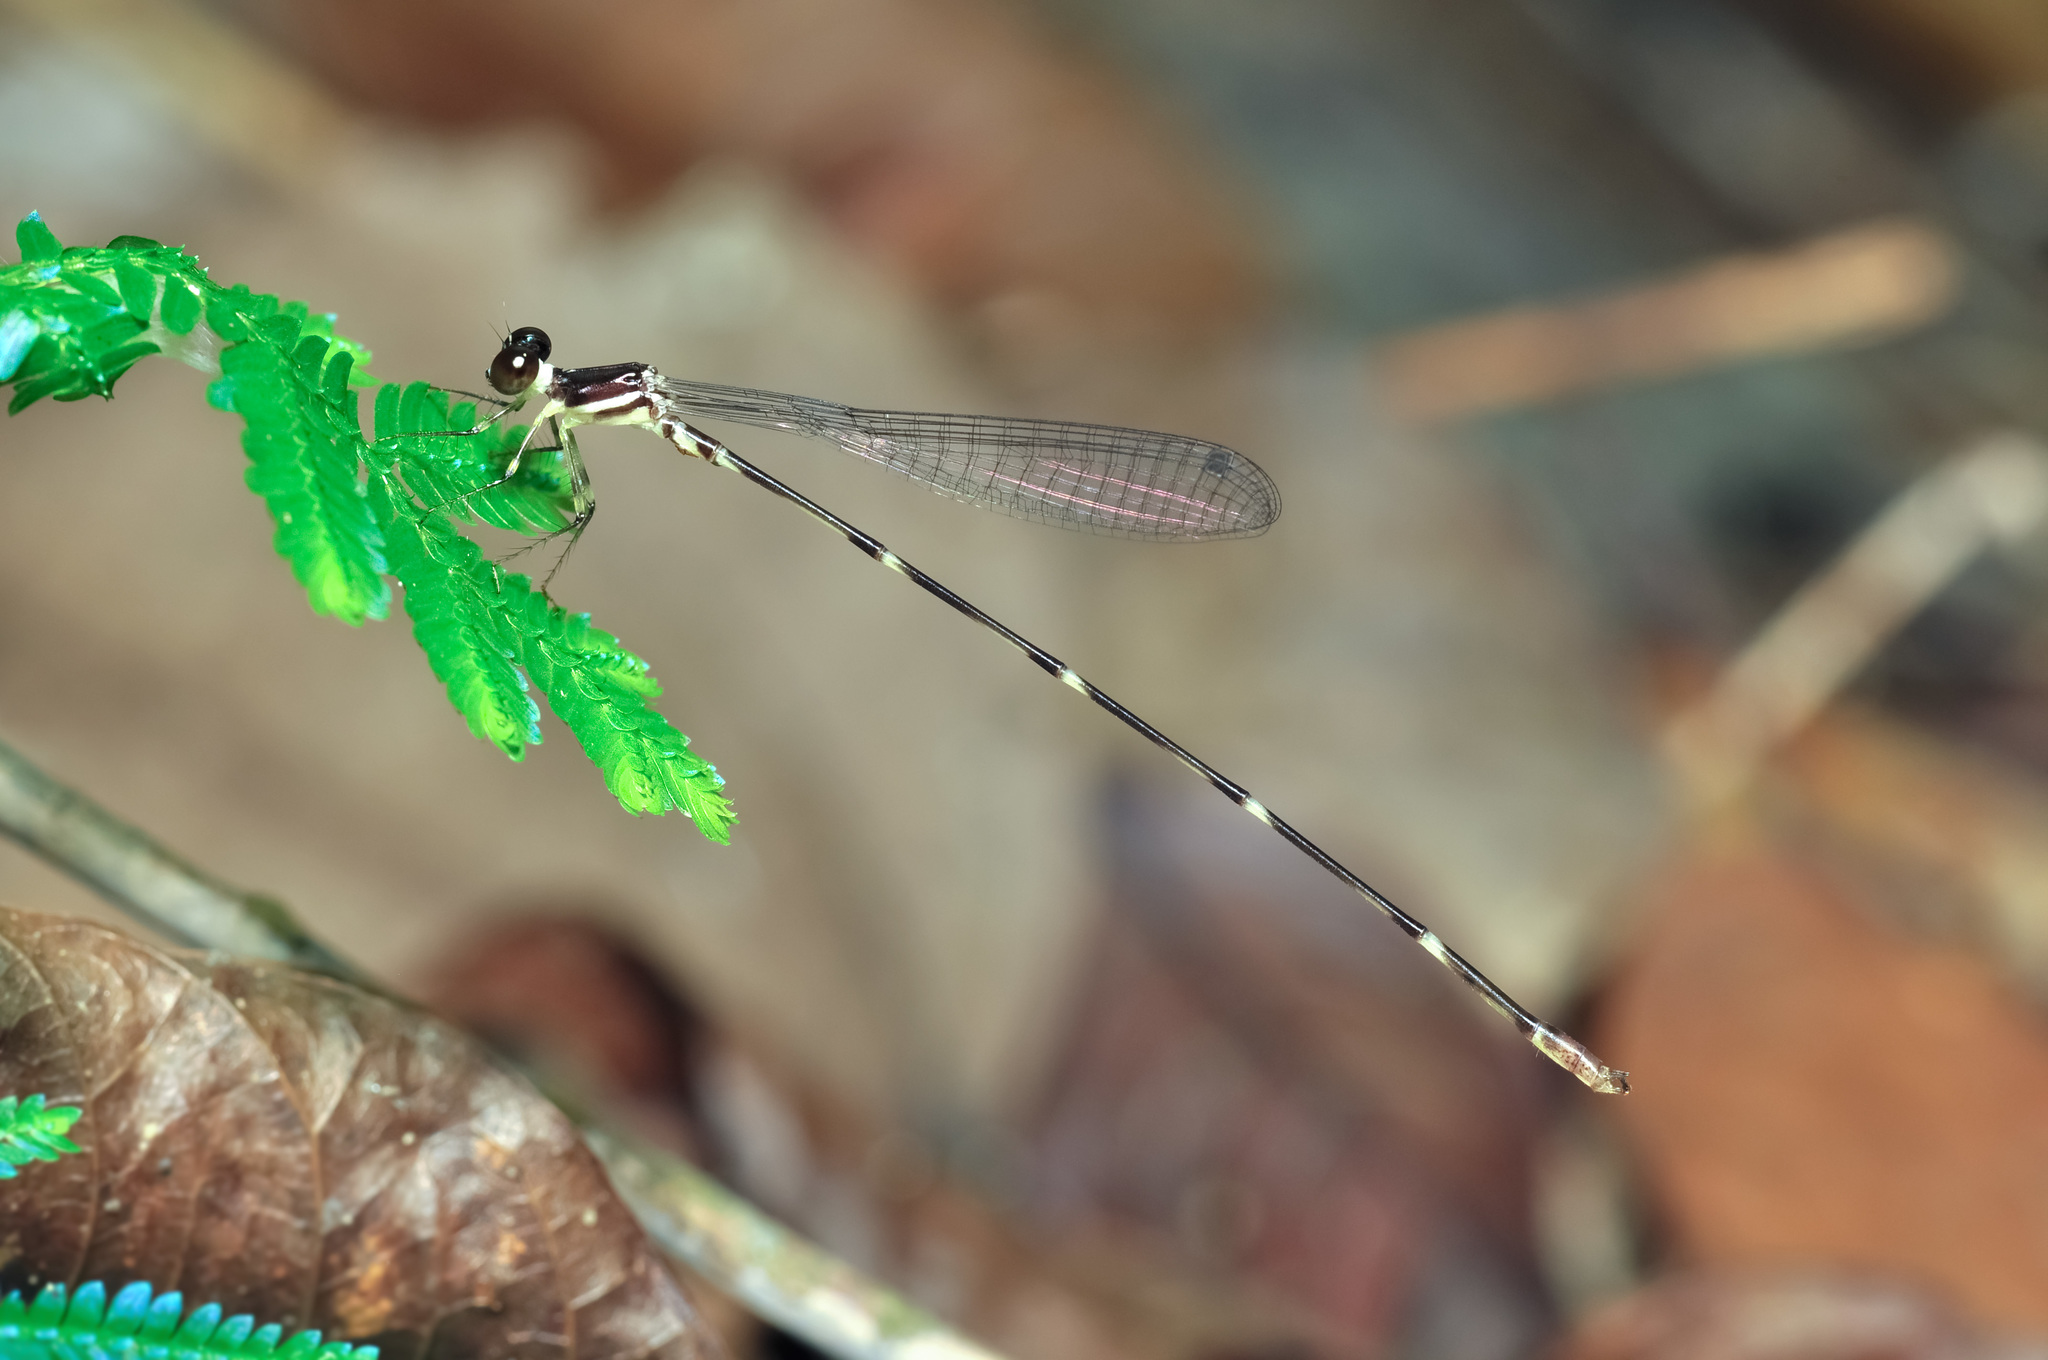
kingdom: Animalia
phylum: Arthropoda
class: Insecta
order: Odonata
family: Platystictidae
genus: Drepanosticta
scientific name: Drepanosticta fontinalis
